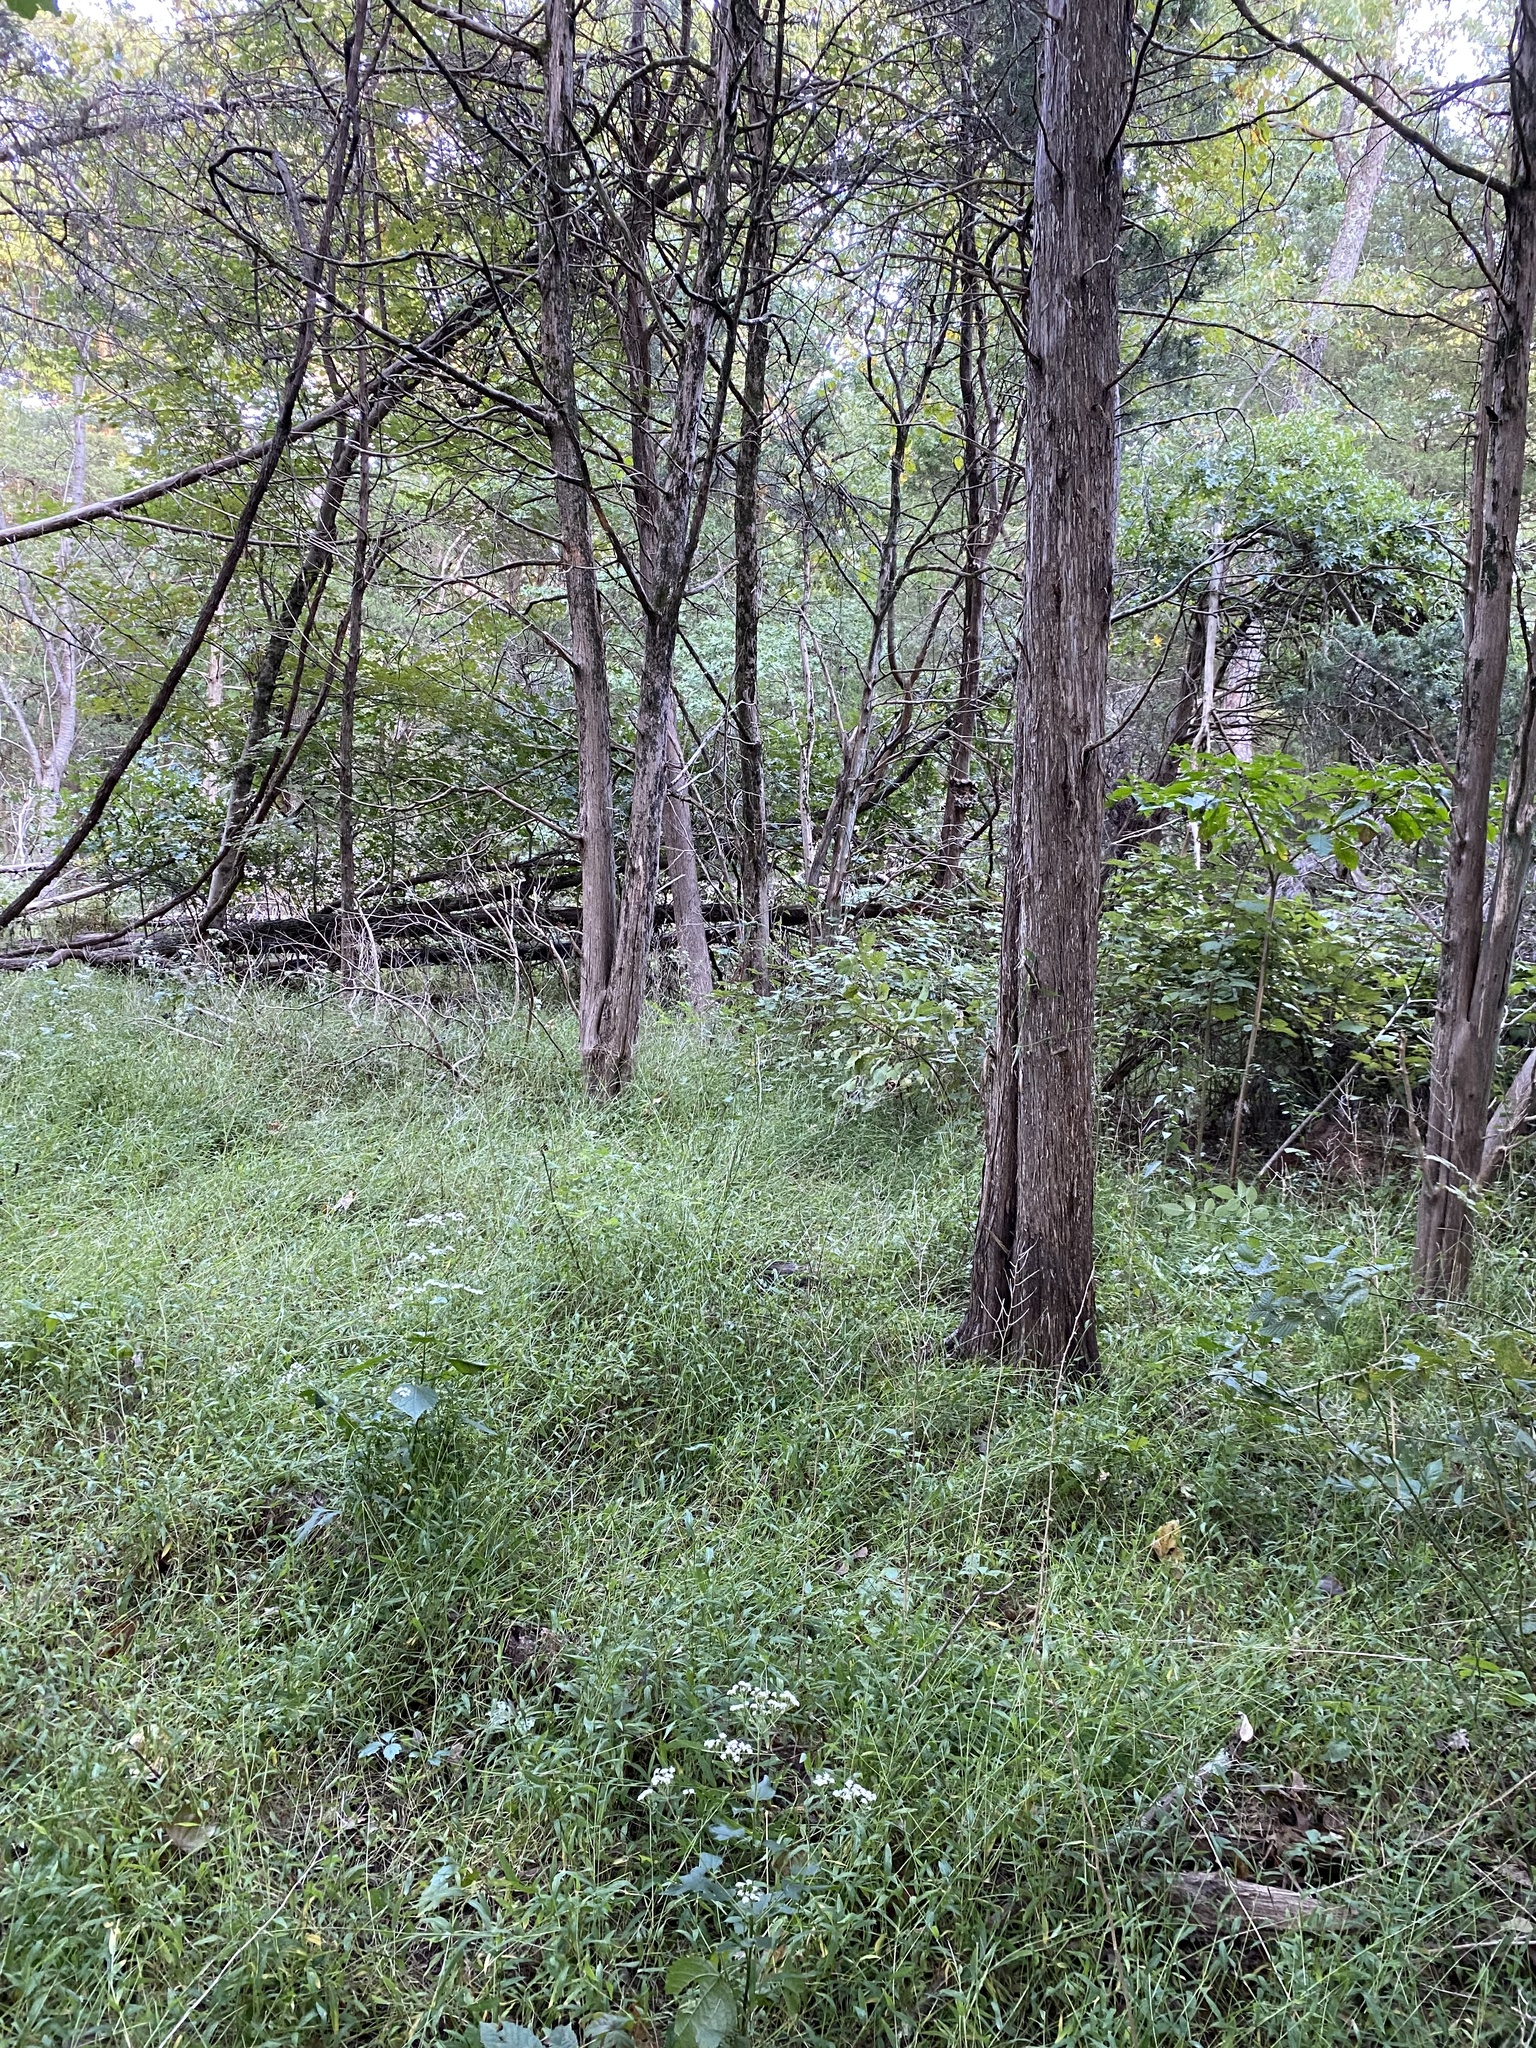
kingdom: Plantae
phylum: Tracheophyta
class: Liliopsida
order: Poales
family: Poaceae
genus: Microstegium
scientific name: Microstegium vimineum
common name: Japanese stiltgrass
